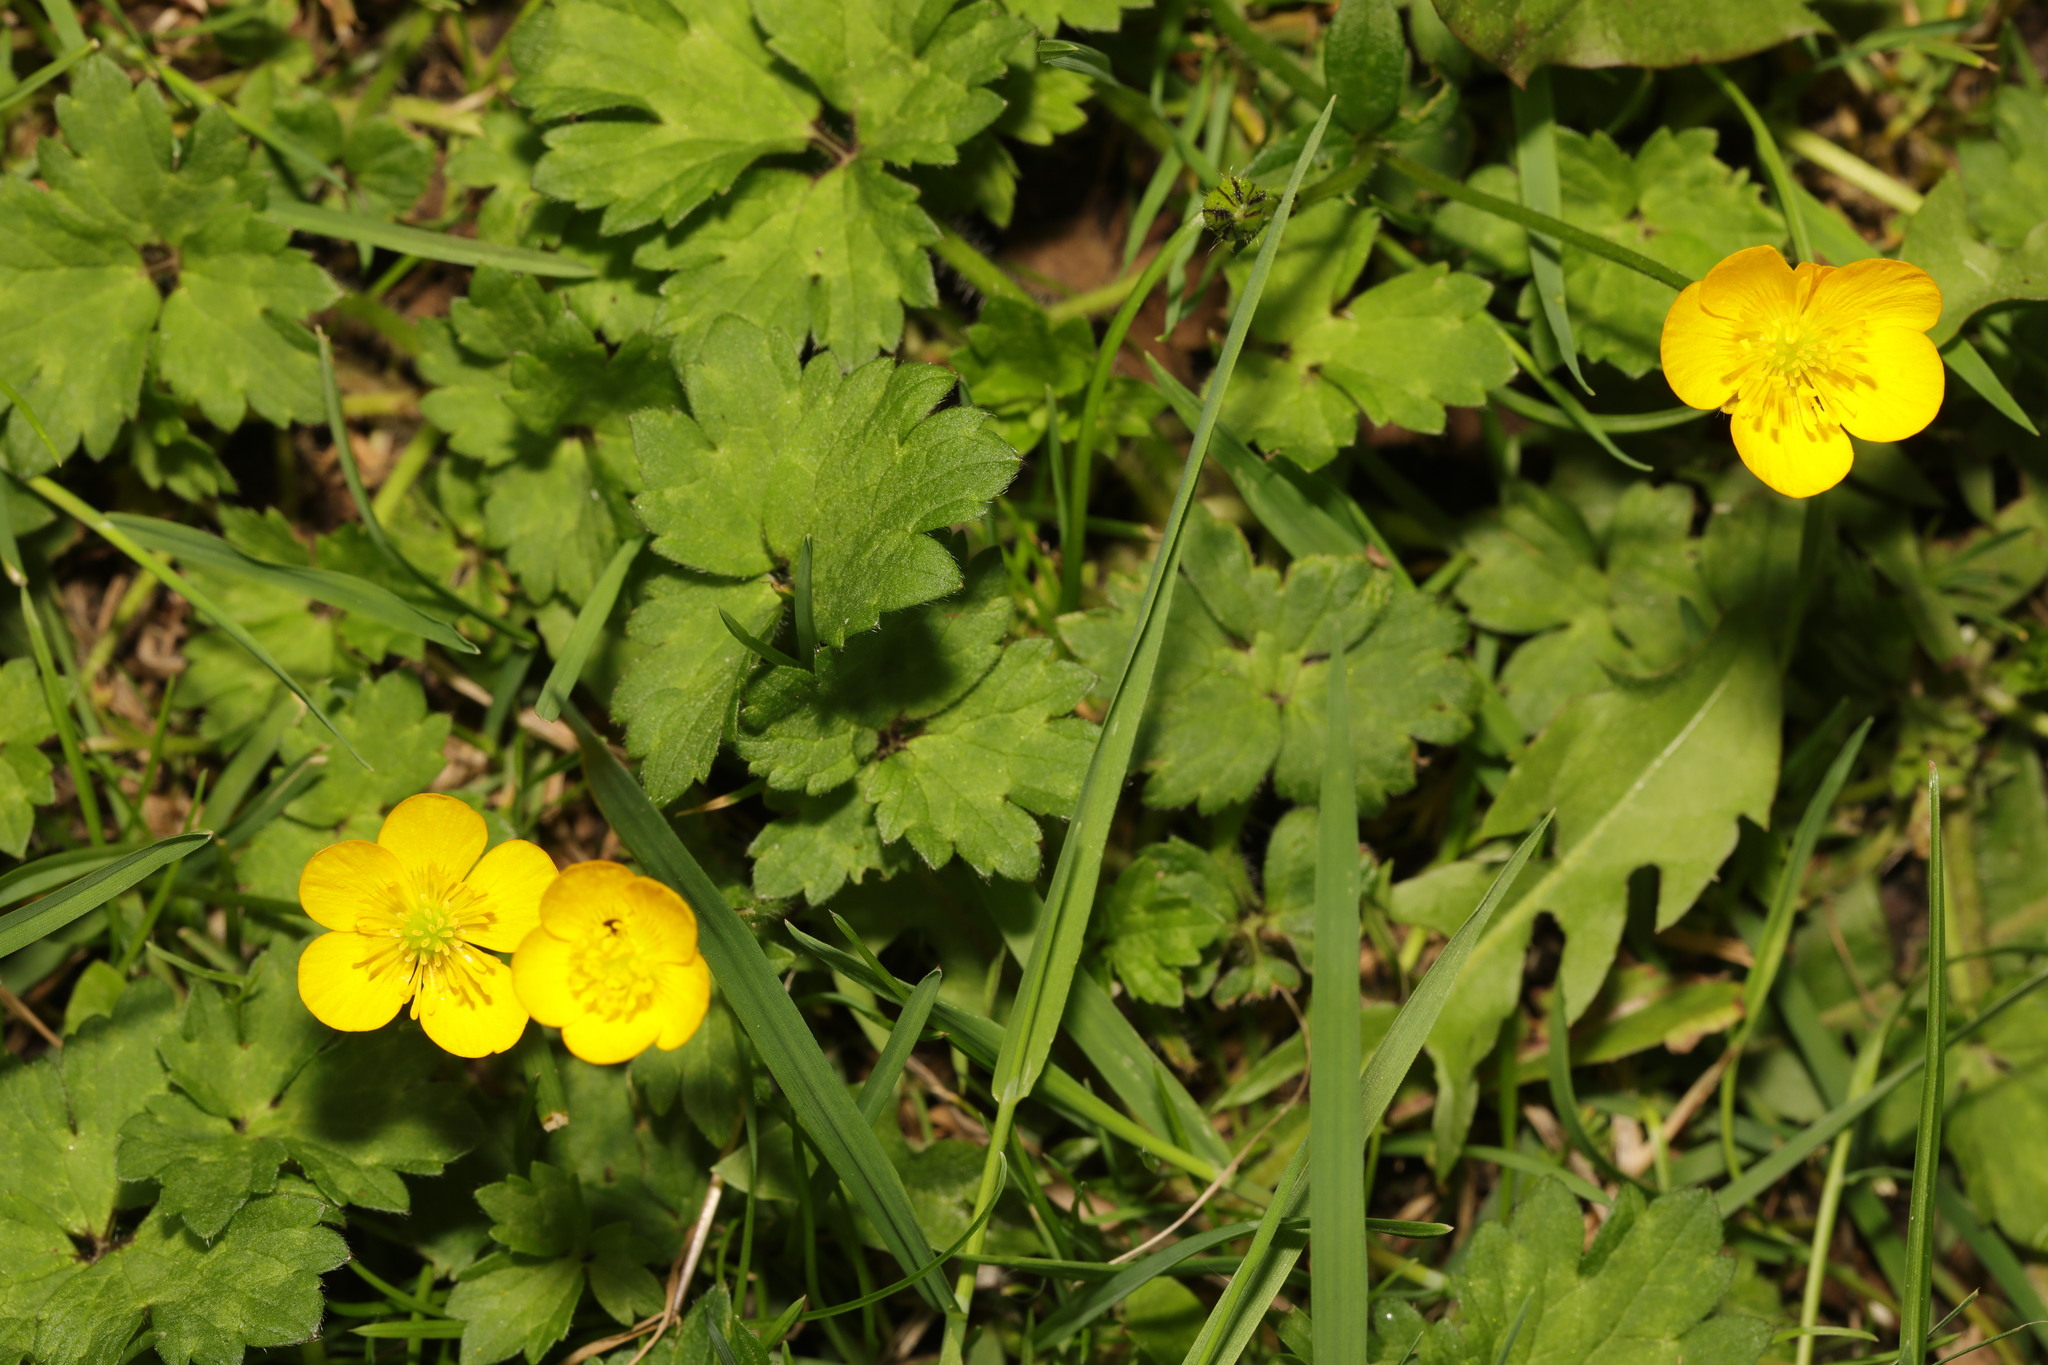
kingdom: Plantae
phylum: Tracheophyta
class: Magnoliopsida
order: Ranunculales
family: Ranunculaceae
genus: Ranunculus
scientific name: Ranunculus repens
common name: Creeping buttercup
